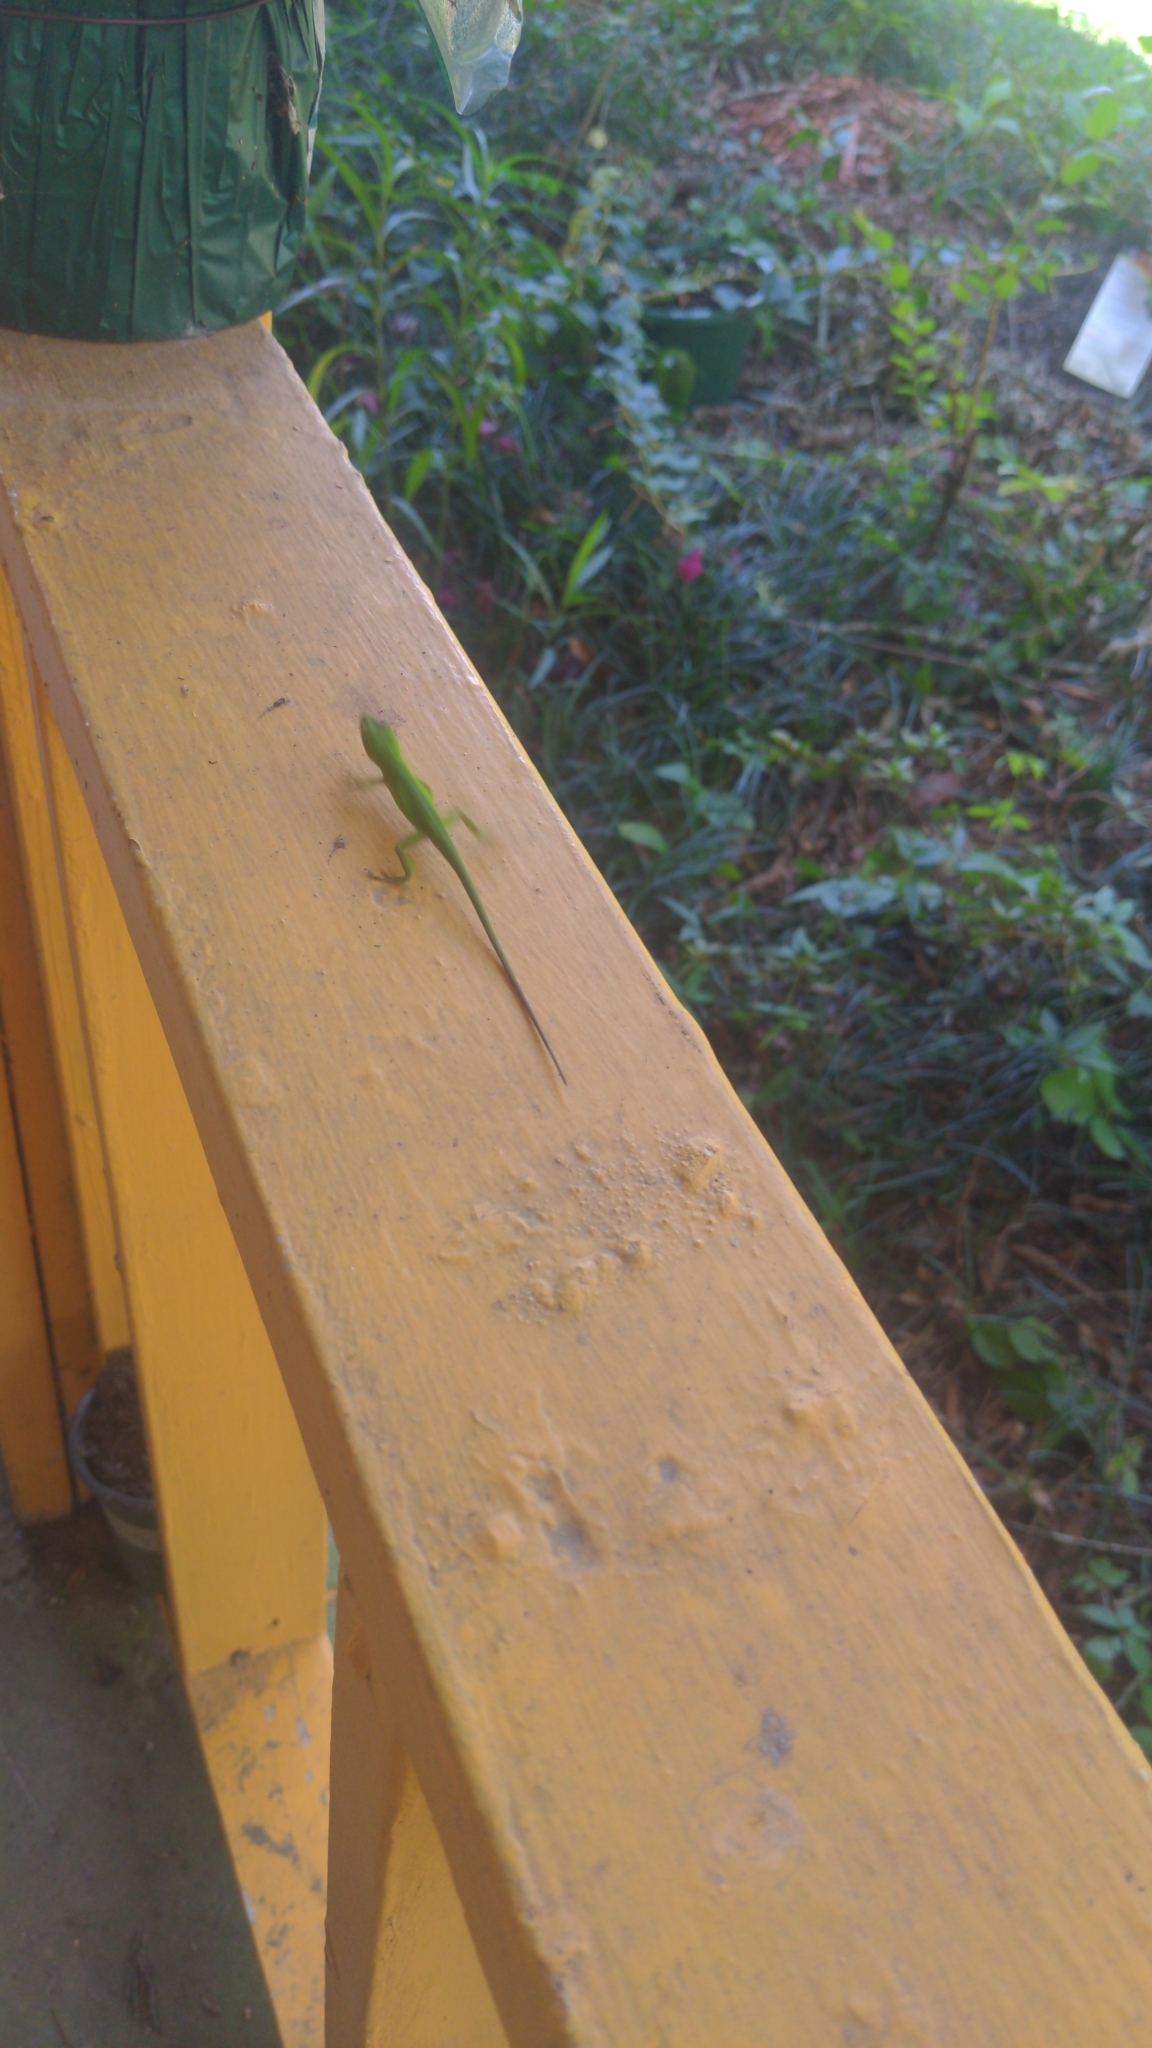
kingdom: Animalia
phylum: Chordata
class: Squamata
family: Dactyloidae
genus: Anolis
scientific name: Anolis carolinensis
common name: Green anole
